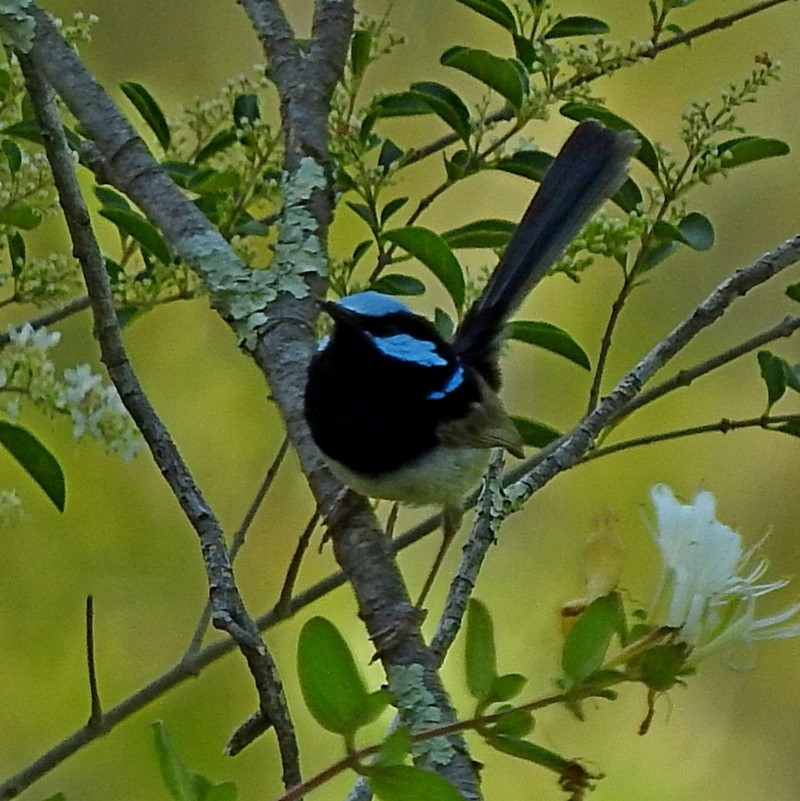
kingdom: Animalia
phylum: Chordata
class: Aves
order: Passeriformes
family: Maluridae
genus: Malurus
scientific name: Malurus cyaneus
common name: Superb fairywren
